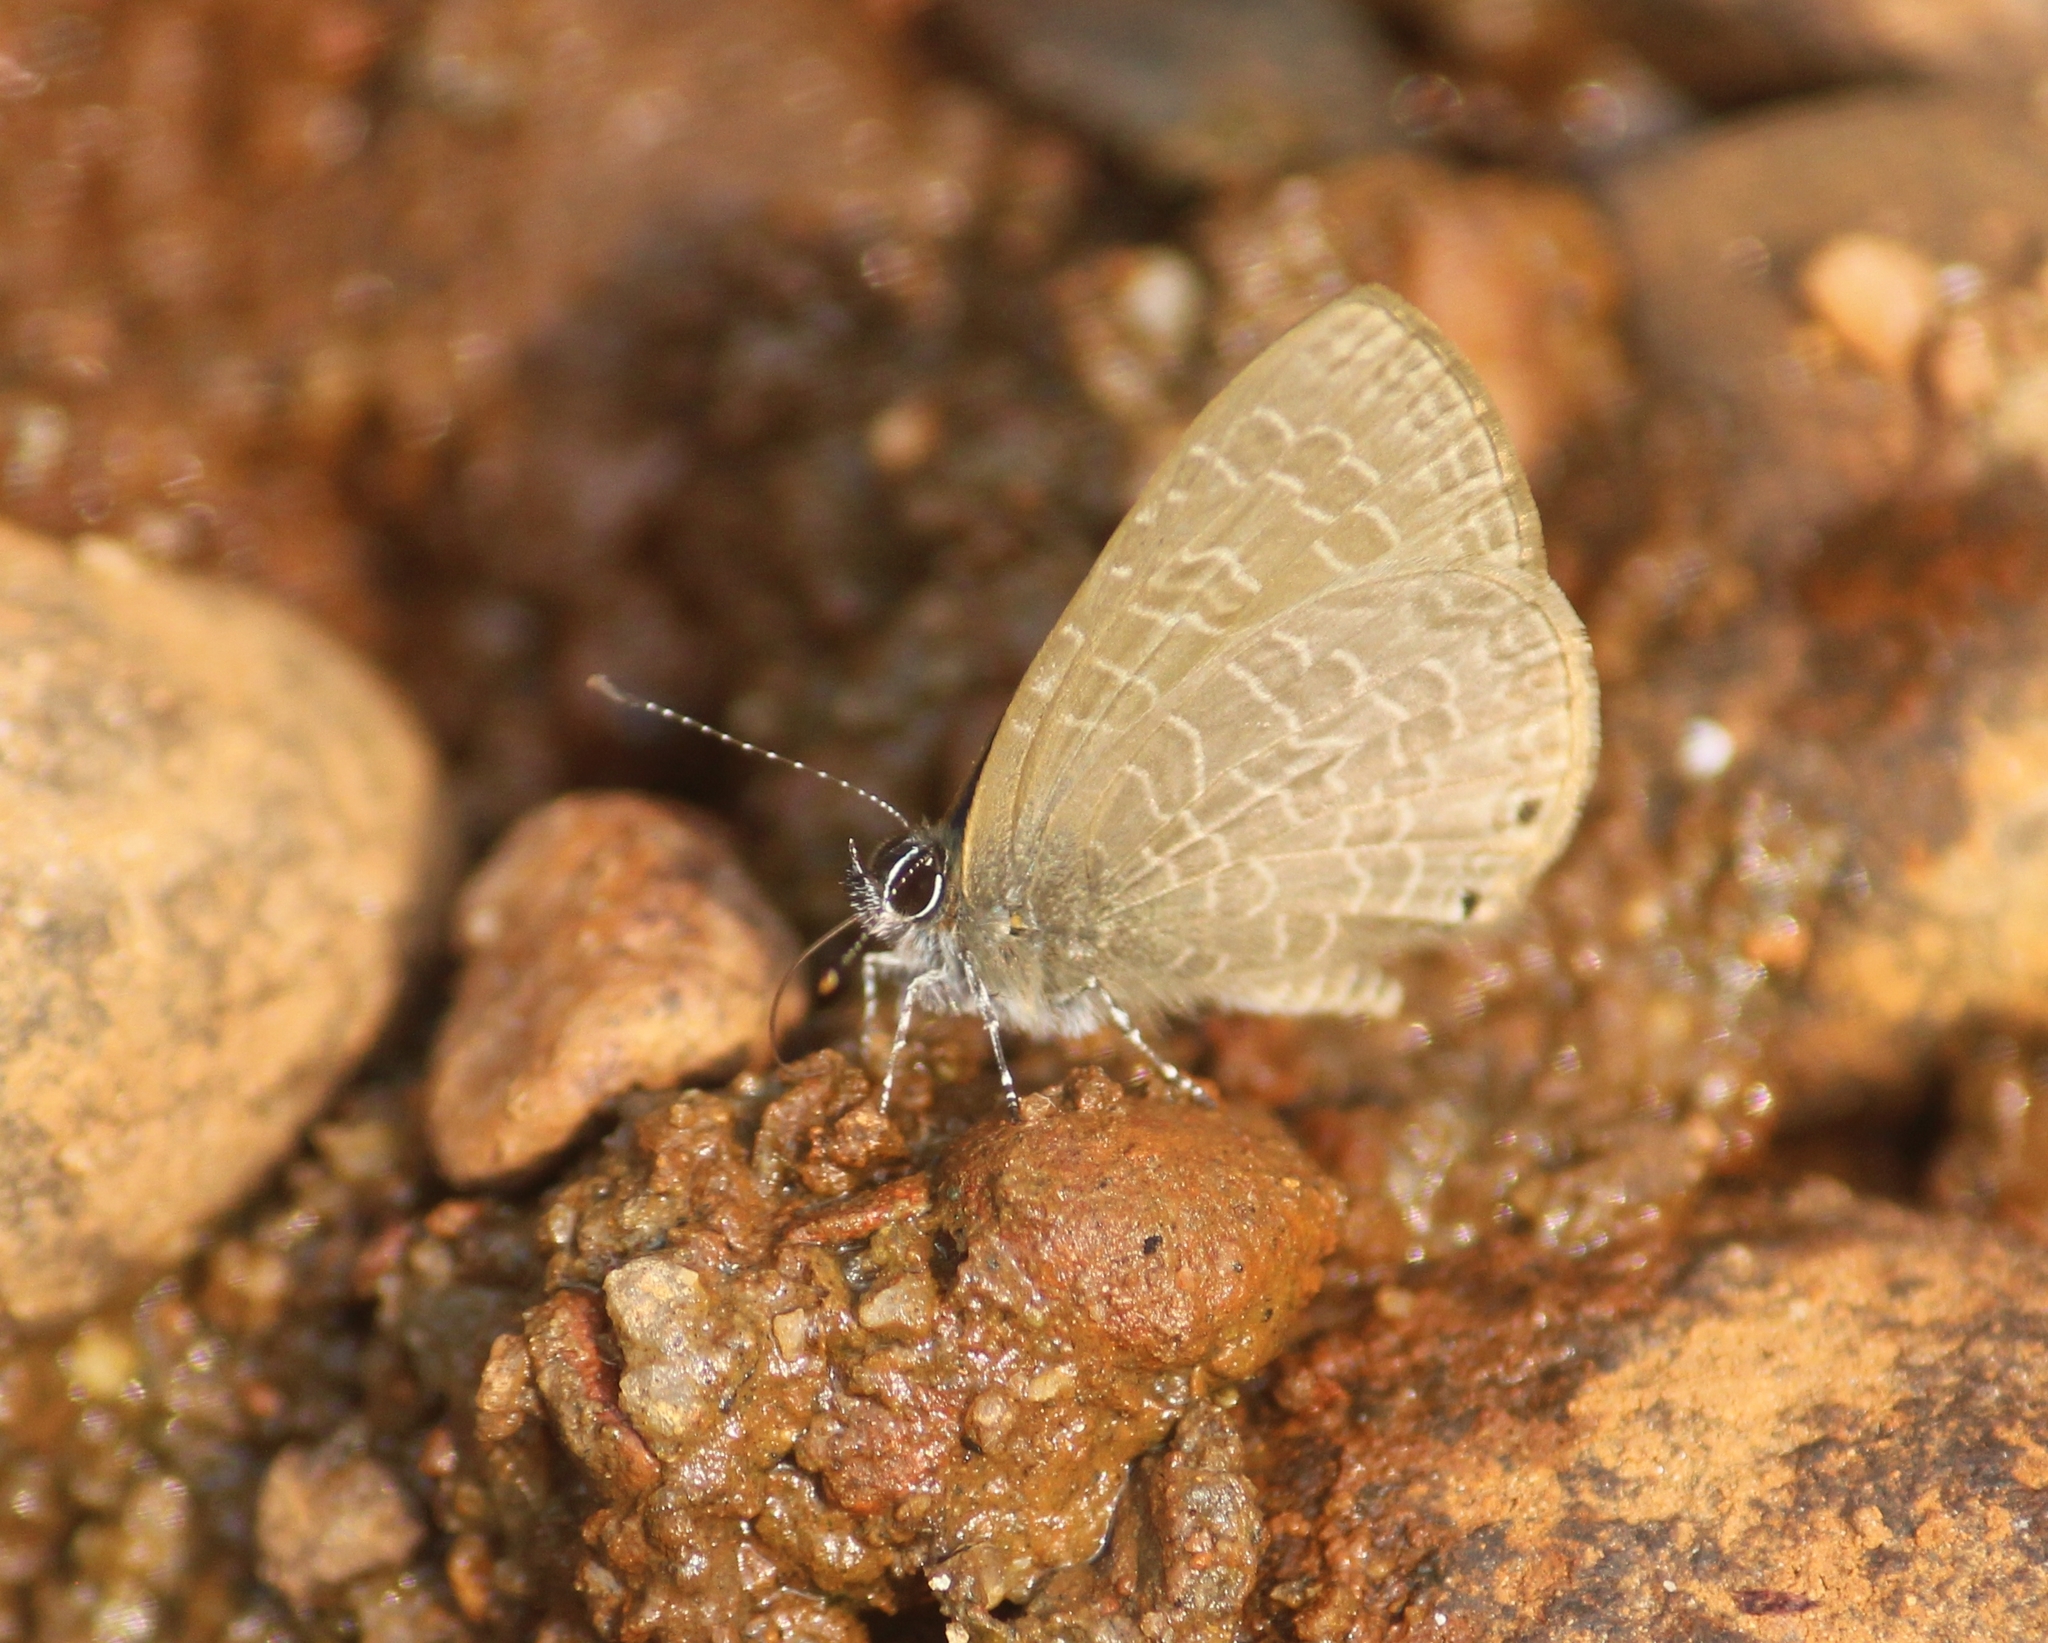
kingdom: Animalia
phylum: Arthropoda
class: Insecta
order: Lepidoptera
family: Lycaenidae
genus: Petrelaea
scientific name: Petrelaea dana
